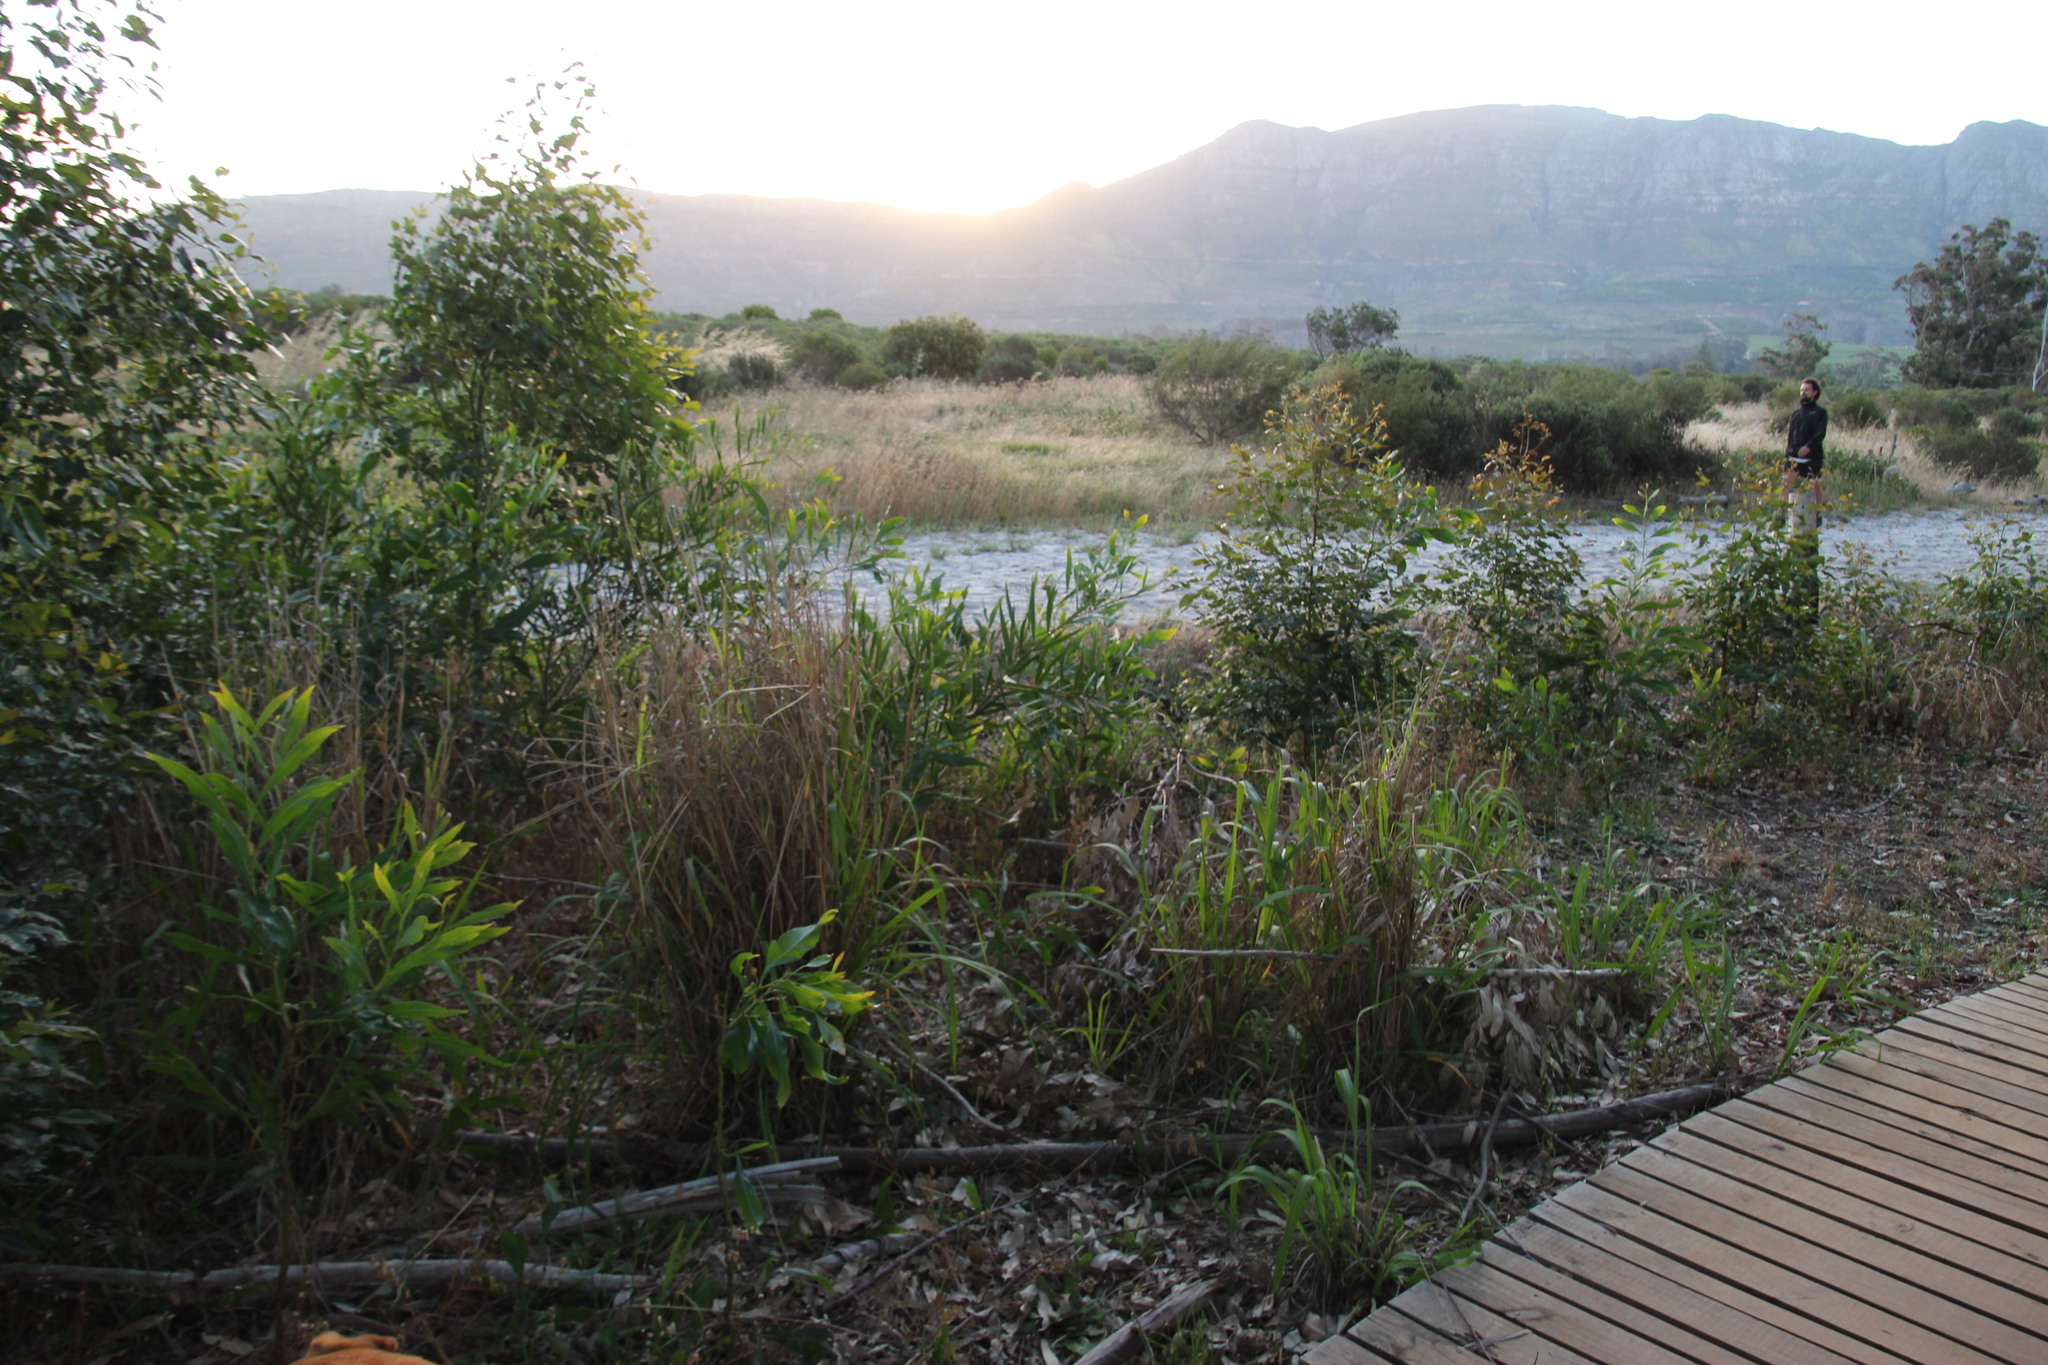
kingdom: Plantae
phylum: Tracheophyta
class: Magnoliopsida
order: Myrtales
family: Myrtaceae
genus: Eucalyptus
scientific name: Eucalyptus grandis
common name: Grand eucalyptus
